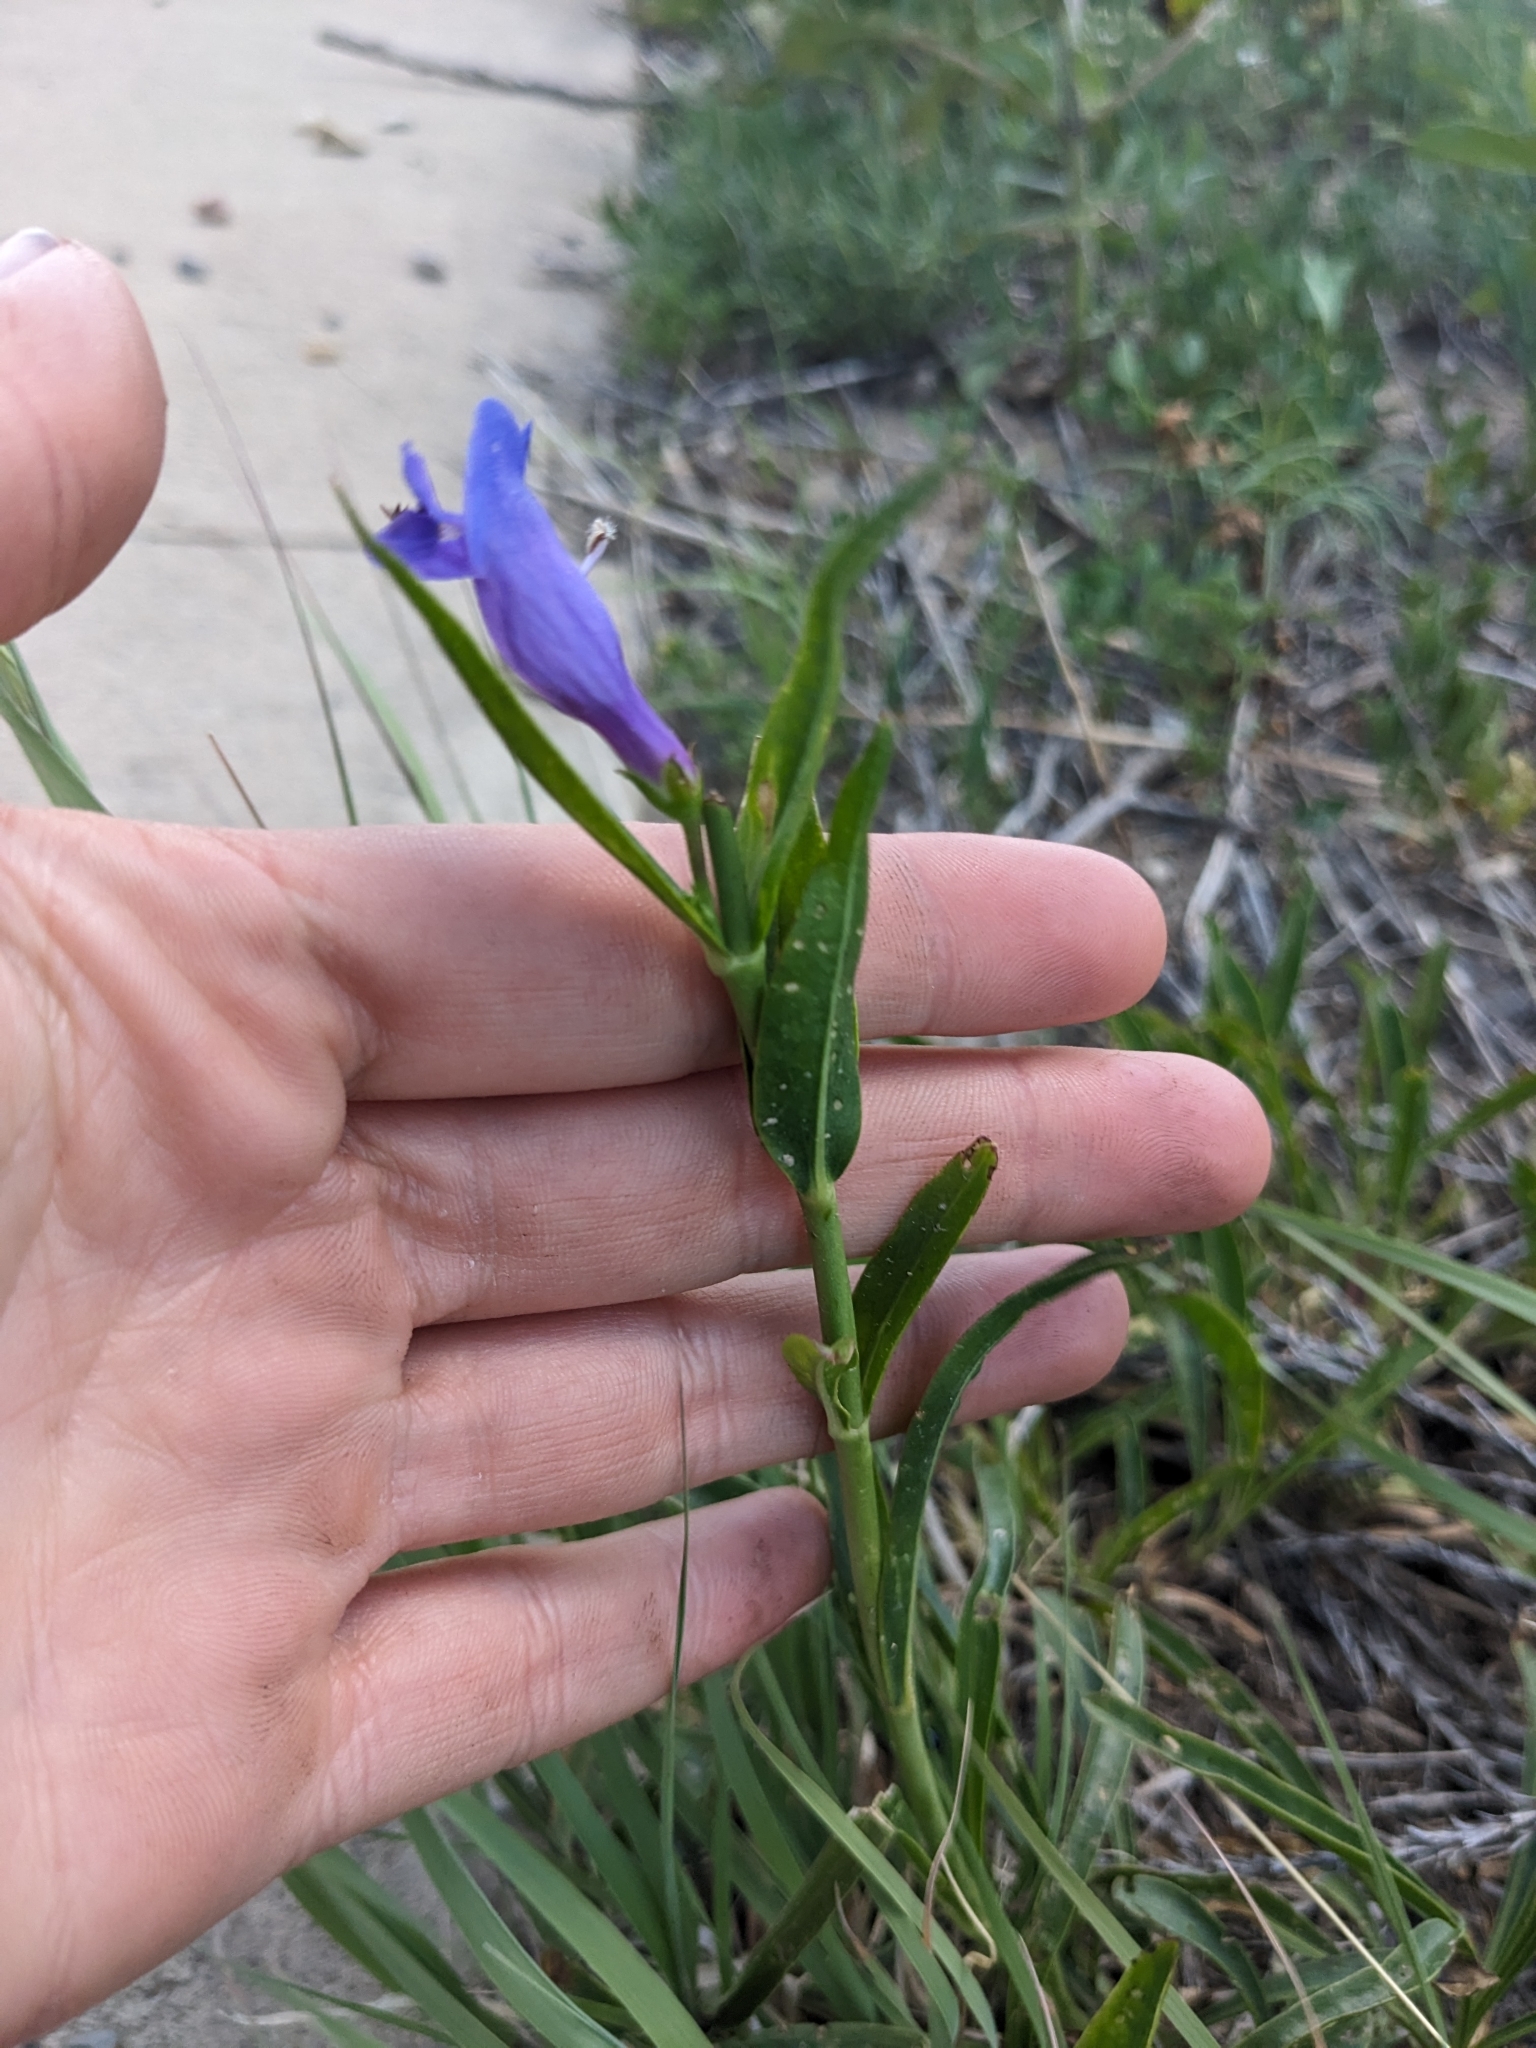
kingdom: Plantae
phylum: Tracheophyta
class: Magnoliopsida
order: Lamiales
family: Plantaginaceae
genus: Penstemon
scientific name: Penstemon strictus
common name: Rocky mountain penstemon
